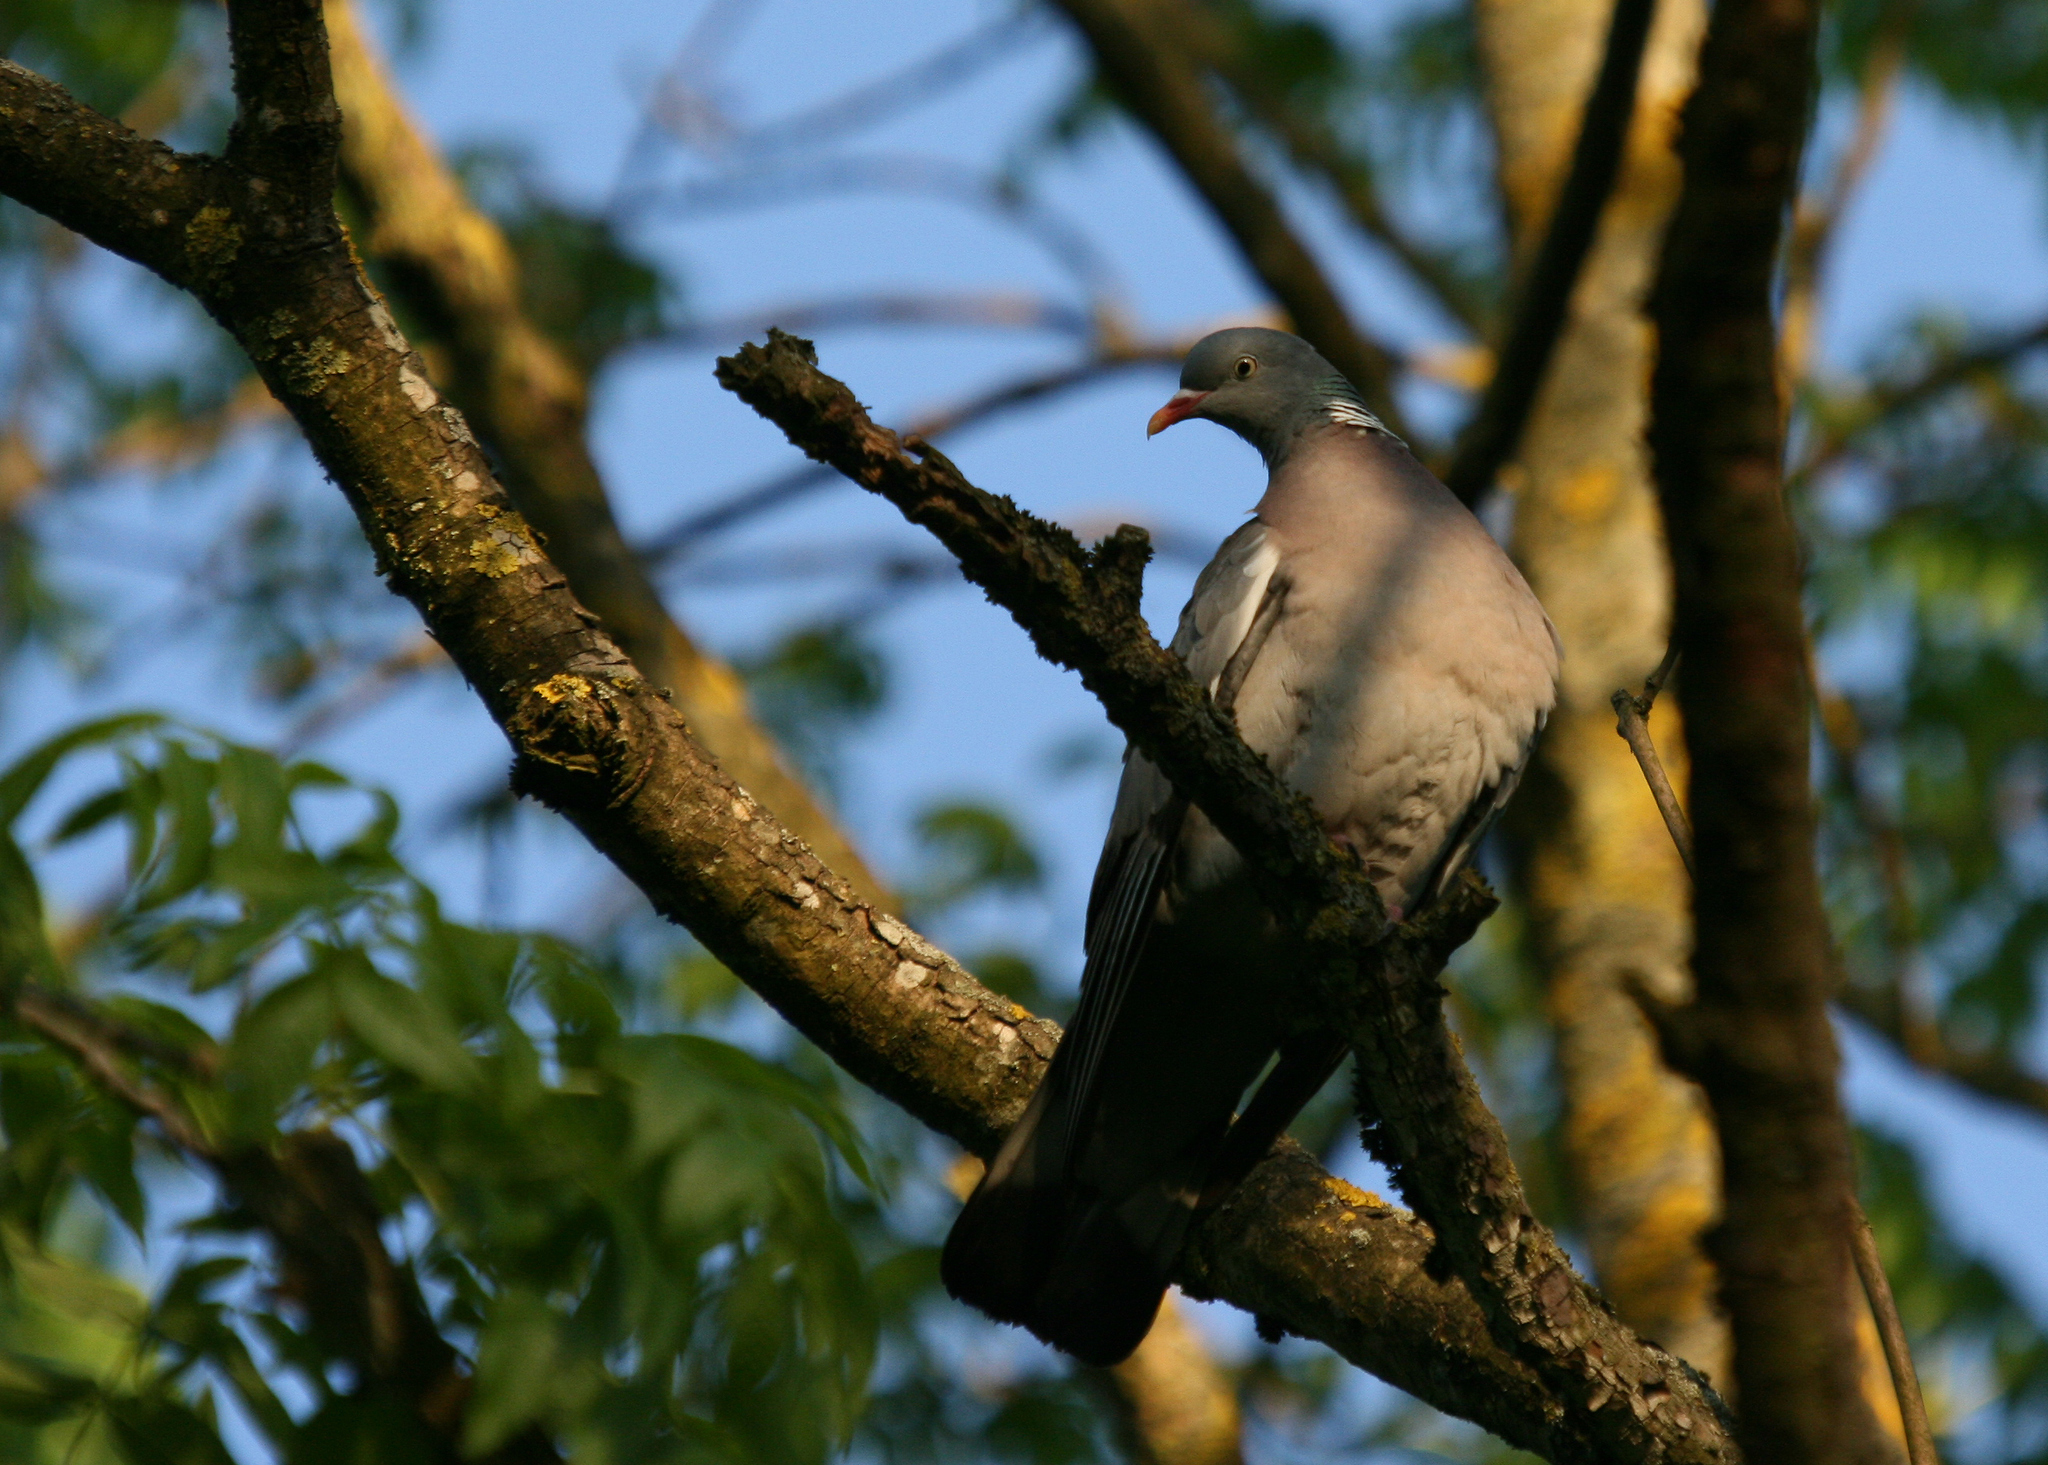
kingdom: Animalia
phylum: Chordata
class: Aves
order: Columbiformes
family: Columbidae
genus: Columba
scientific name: Columba palumbus
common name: Common wood pigeon
